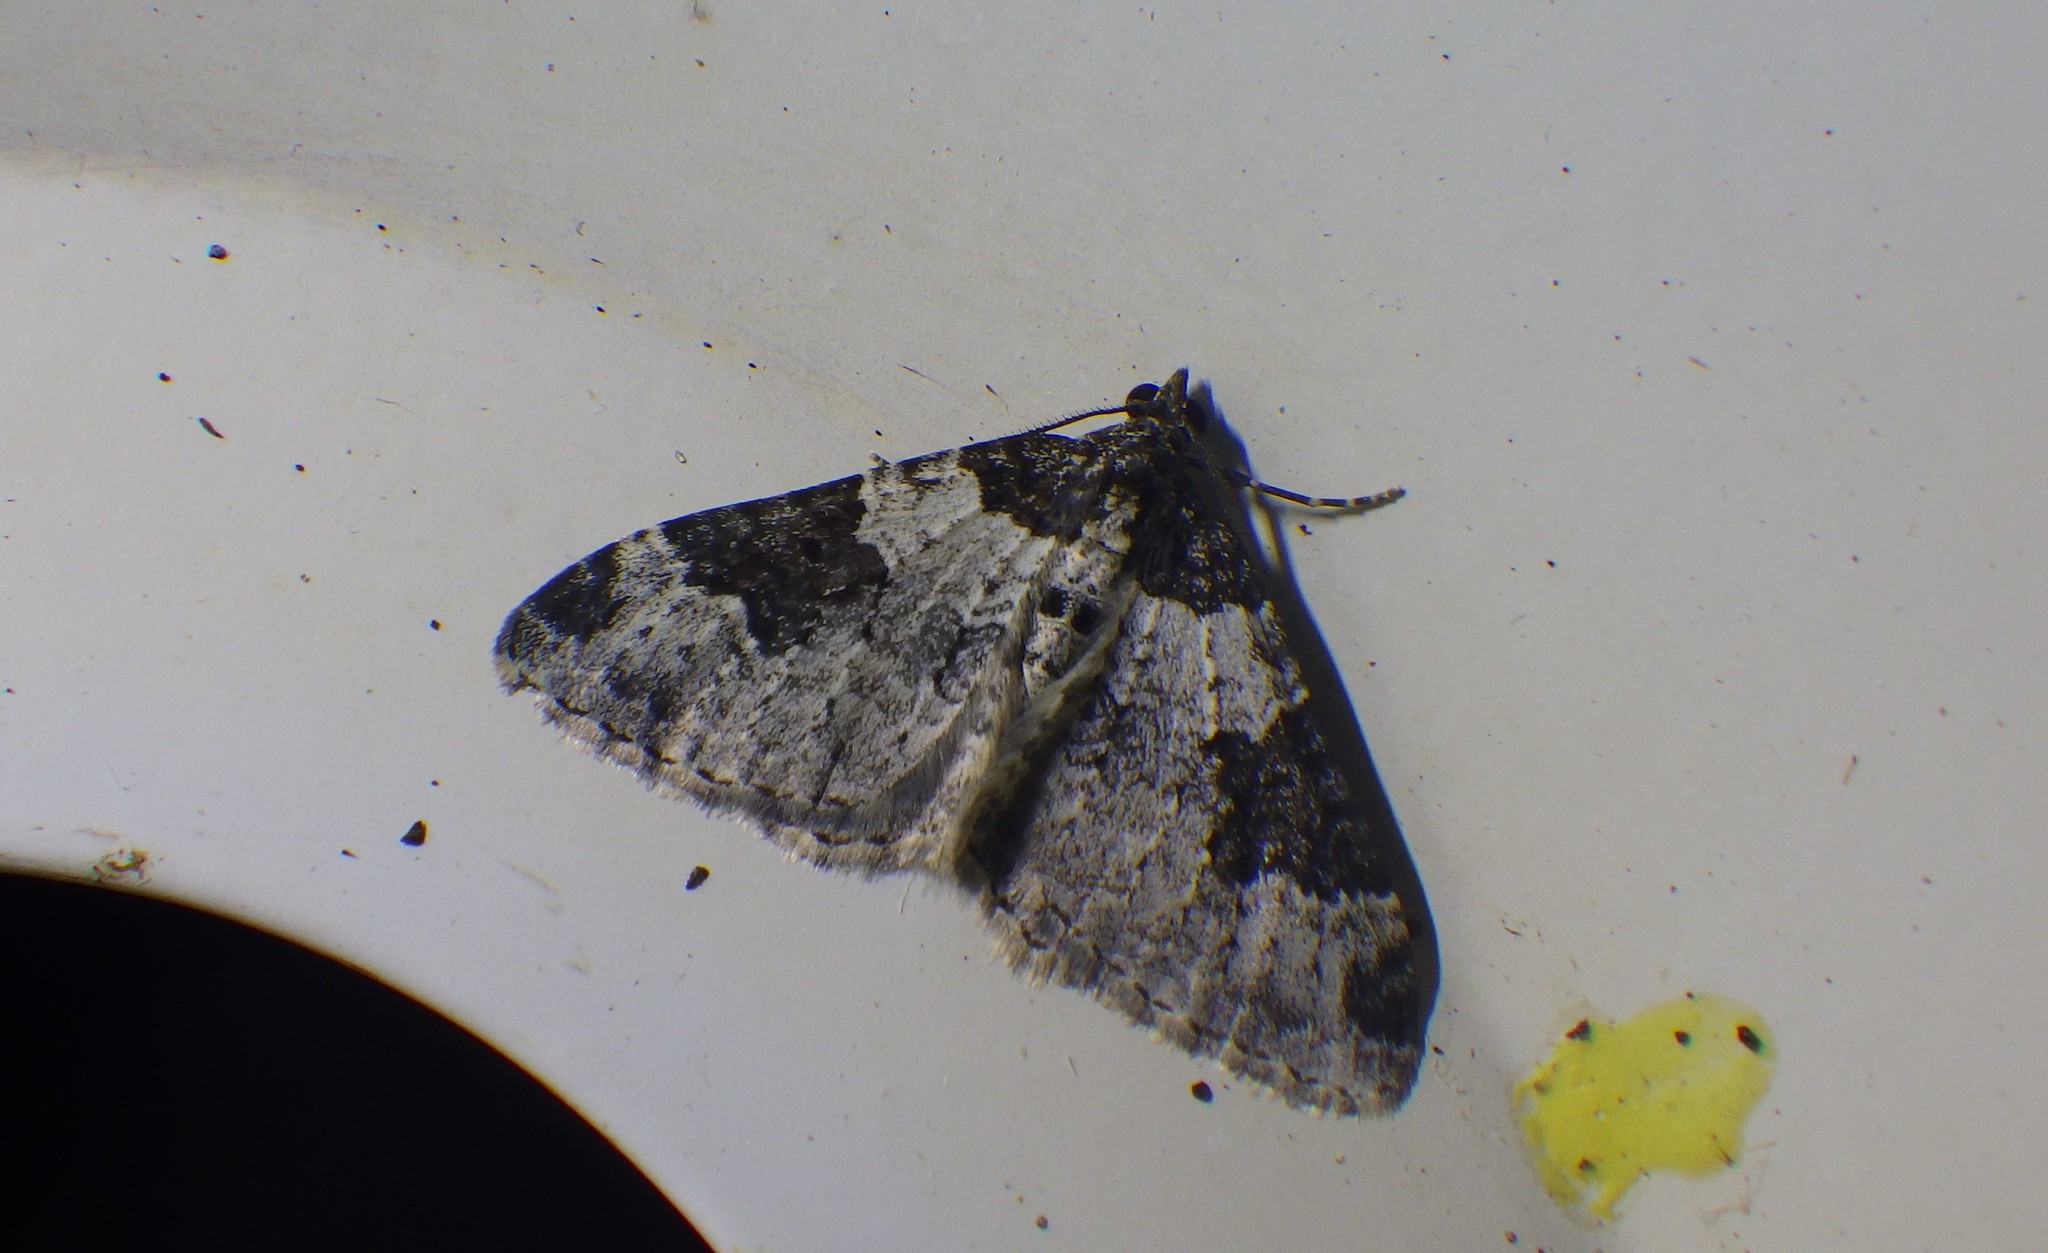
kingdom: Animalia
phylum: Arthropoda
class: Insecta
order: Lepidoptera
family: Geometridae
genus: Xanthorhoe
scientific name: Xanthorhoe fluctuata
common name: Garden carpet
